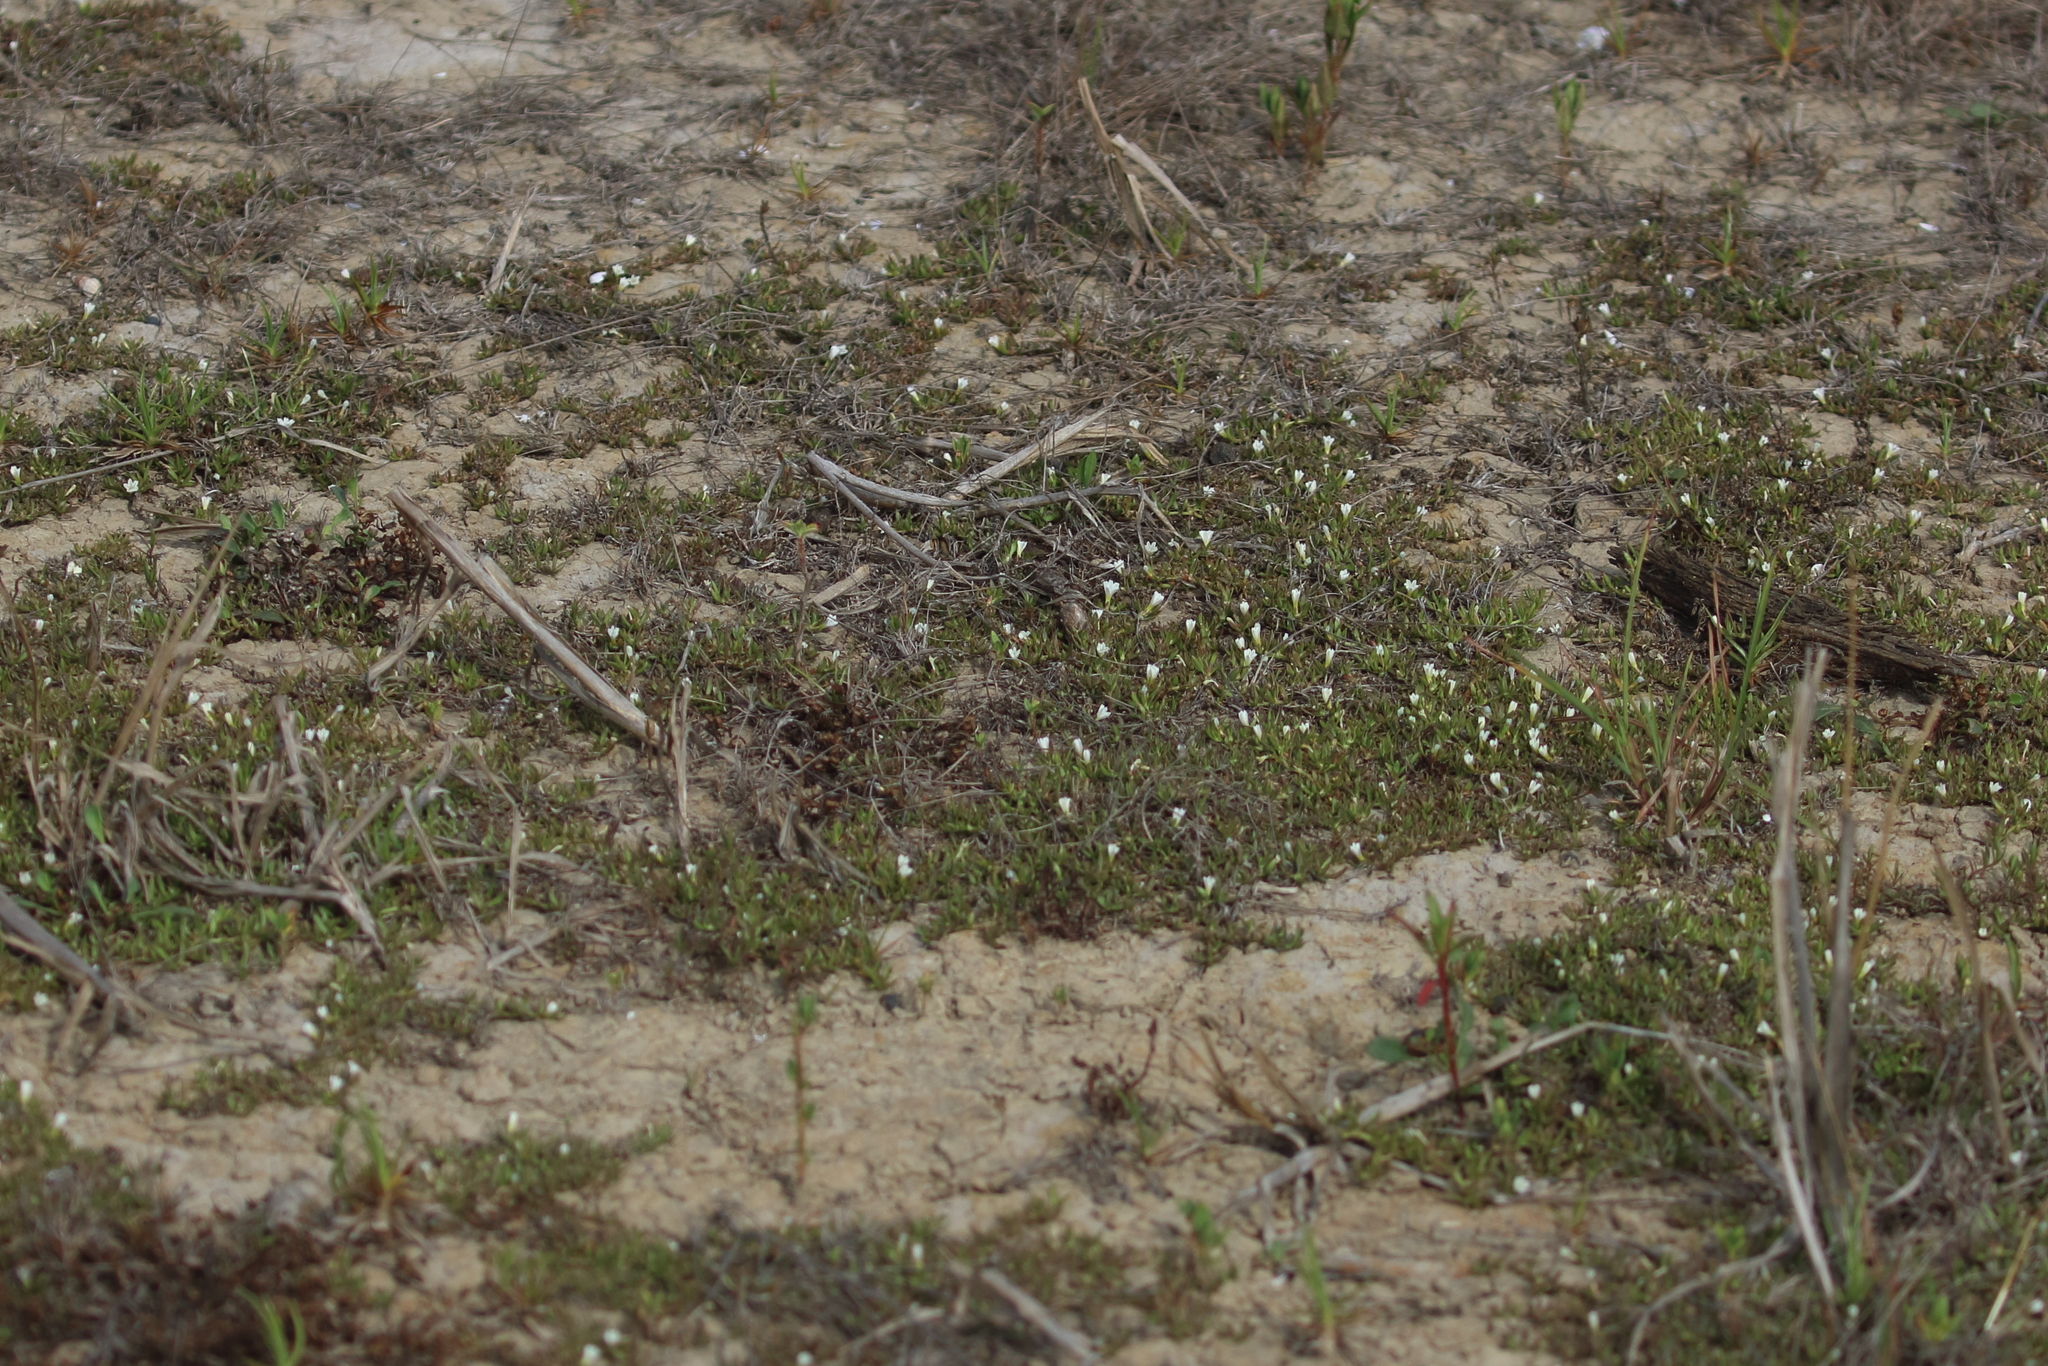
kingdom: Plantae
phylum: Tracheophyta
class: Magnoliopsida
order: Gentianales
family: Rubiaceae
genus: Dentella
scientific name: Dentella repens
